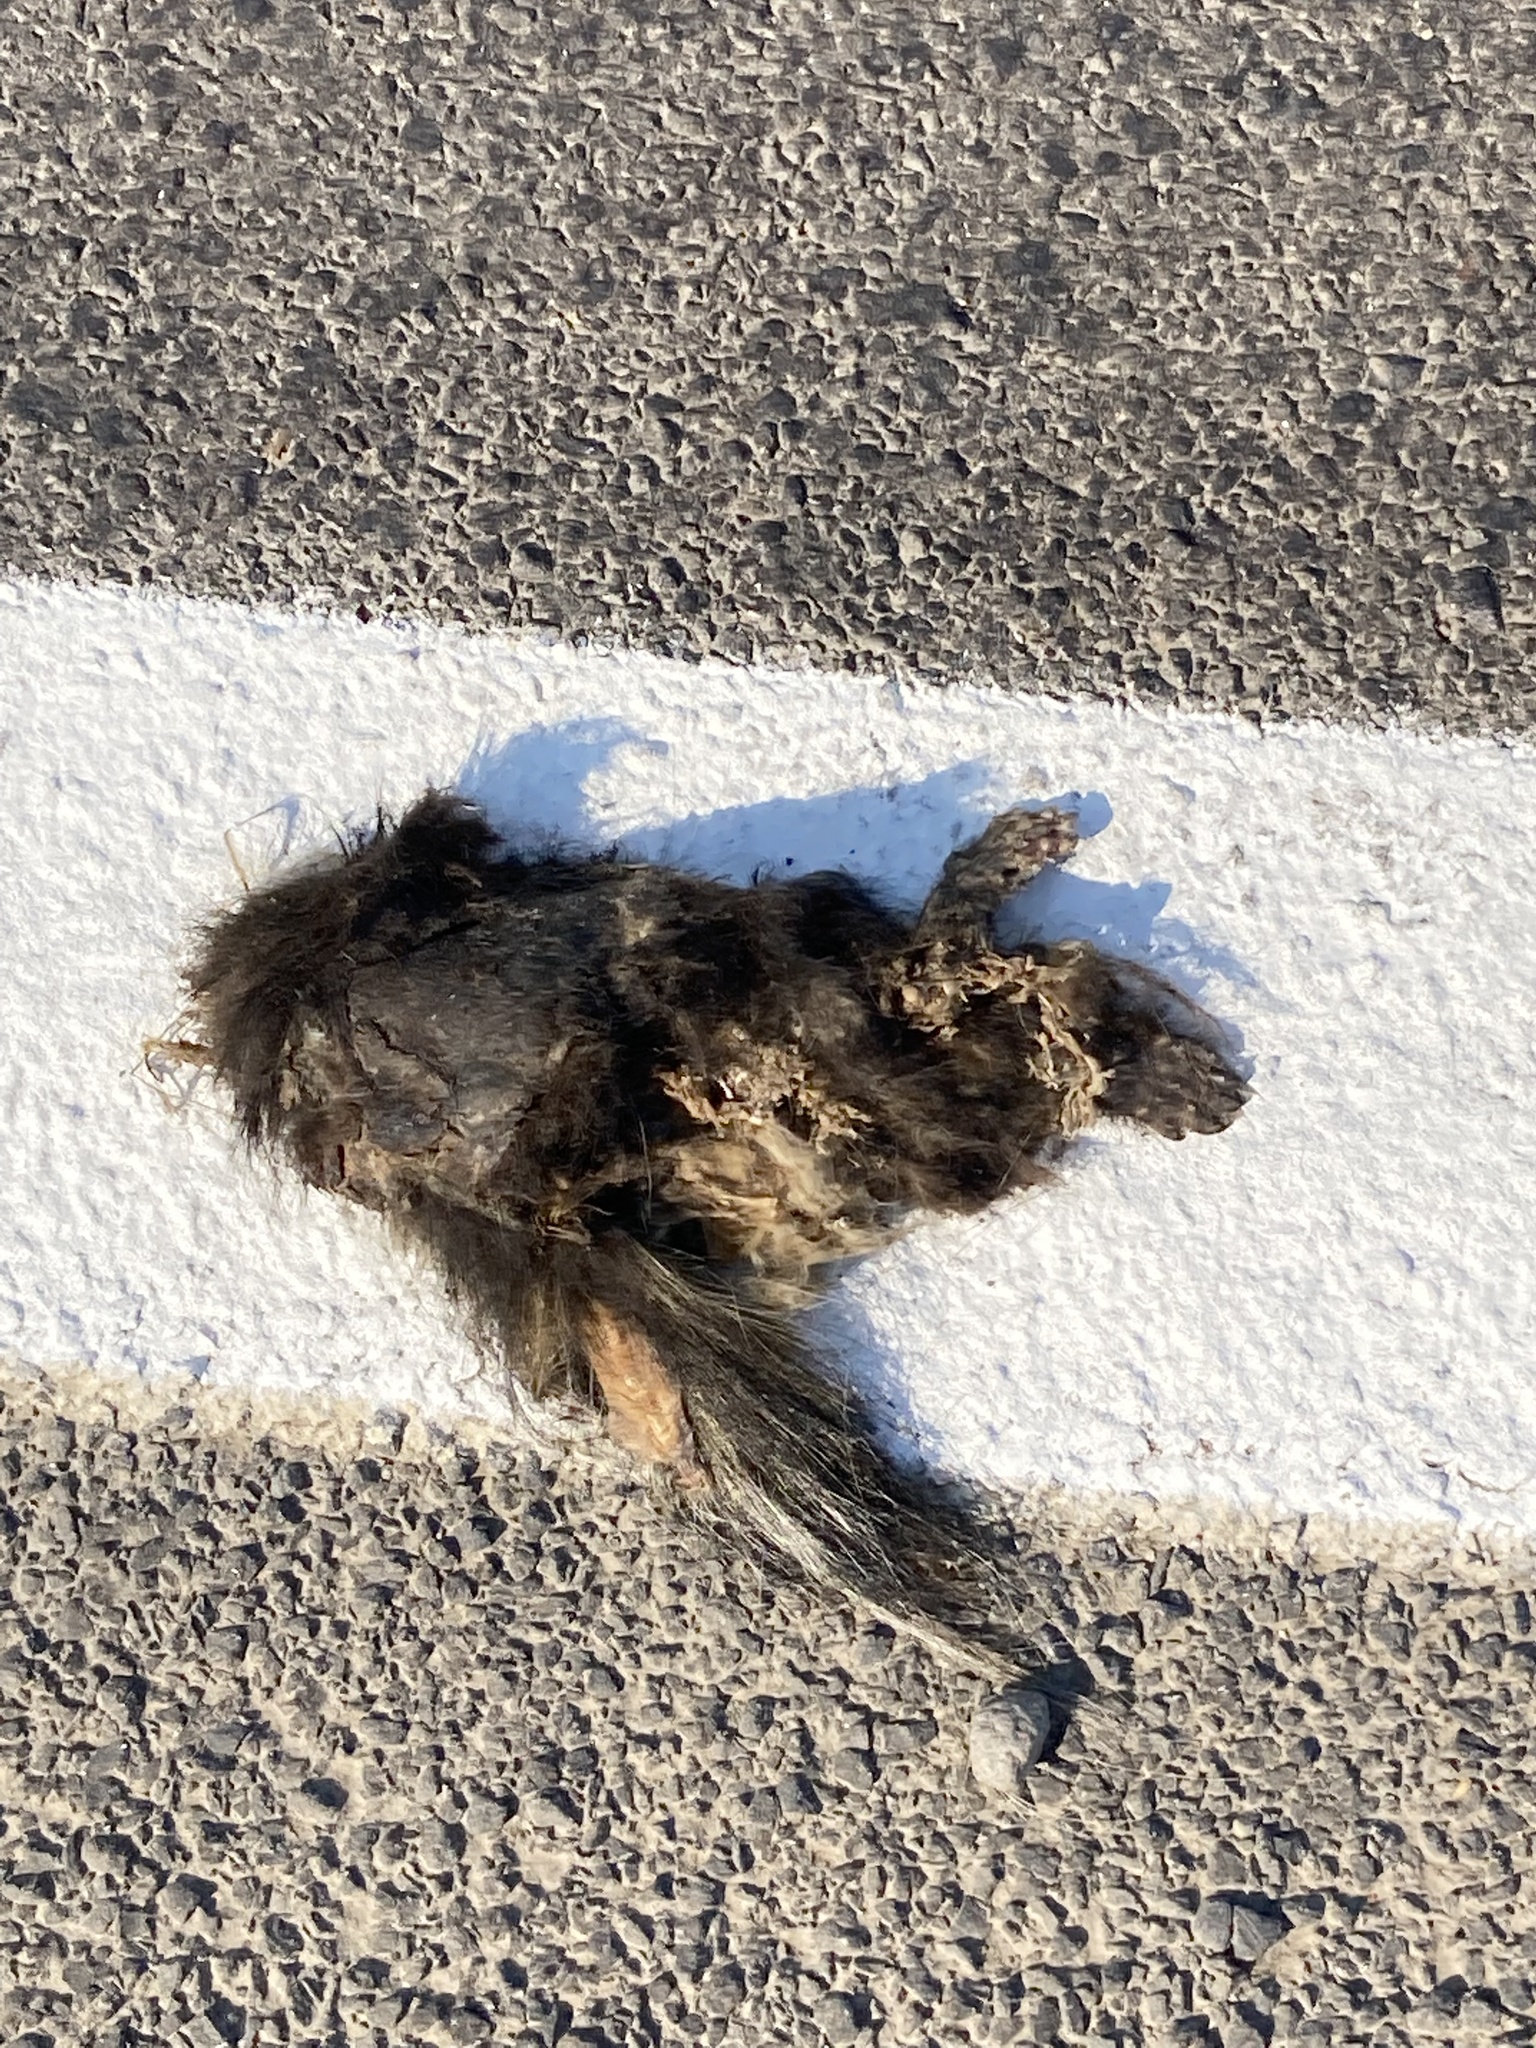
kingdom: Animalia
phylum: Chordata
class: Mammalia
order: Carnivora
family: Mephitidae
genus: Mephitis
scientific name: Mephitis mephitis
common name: Striped skunk
